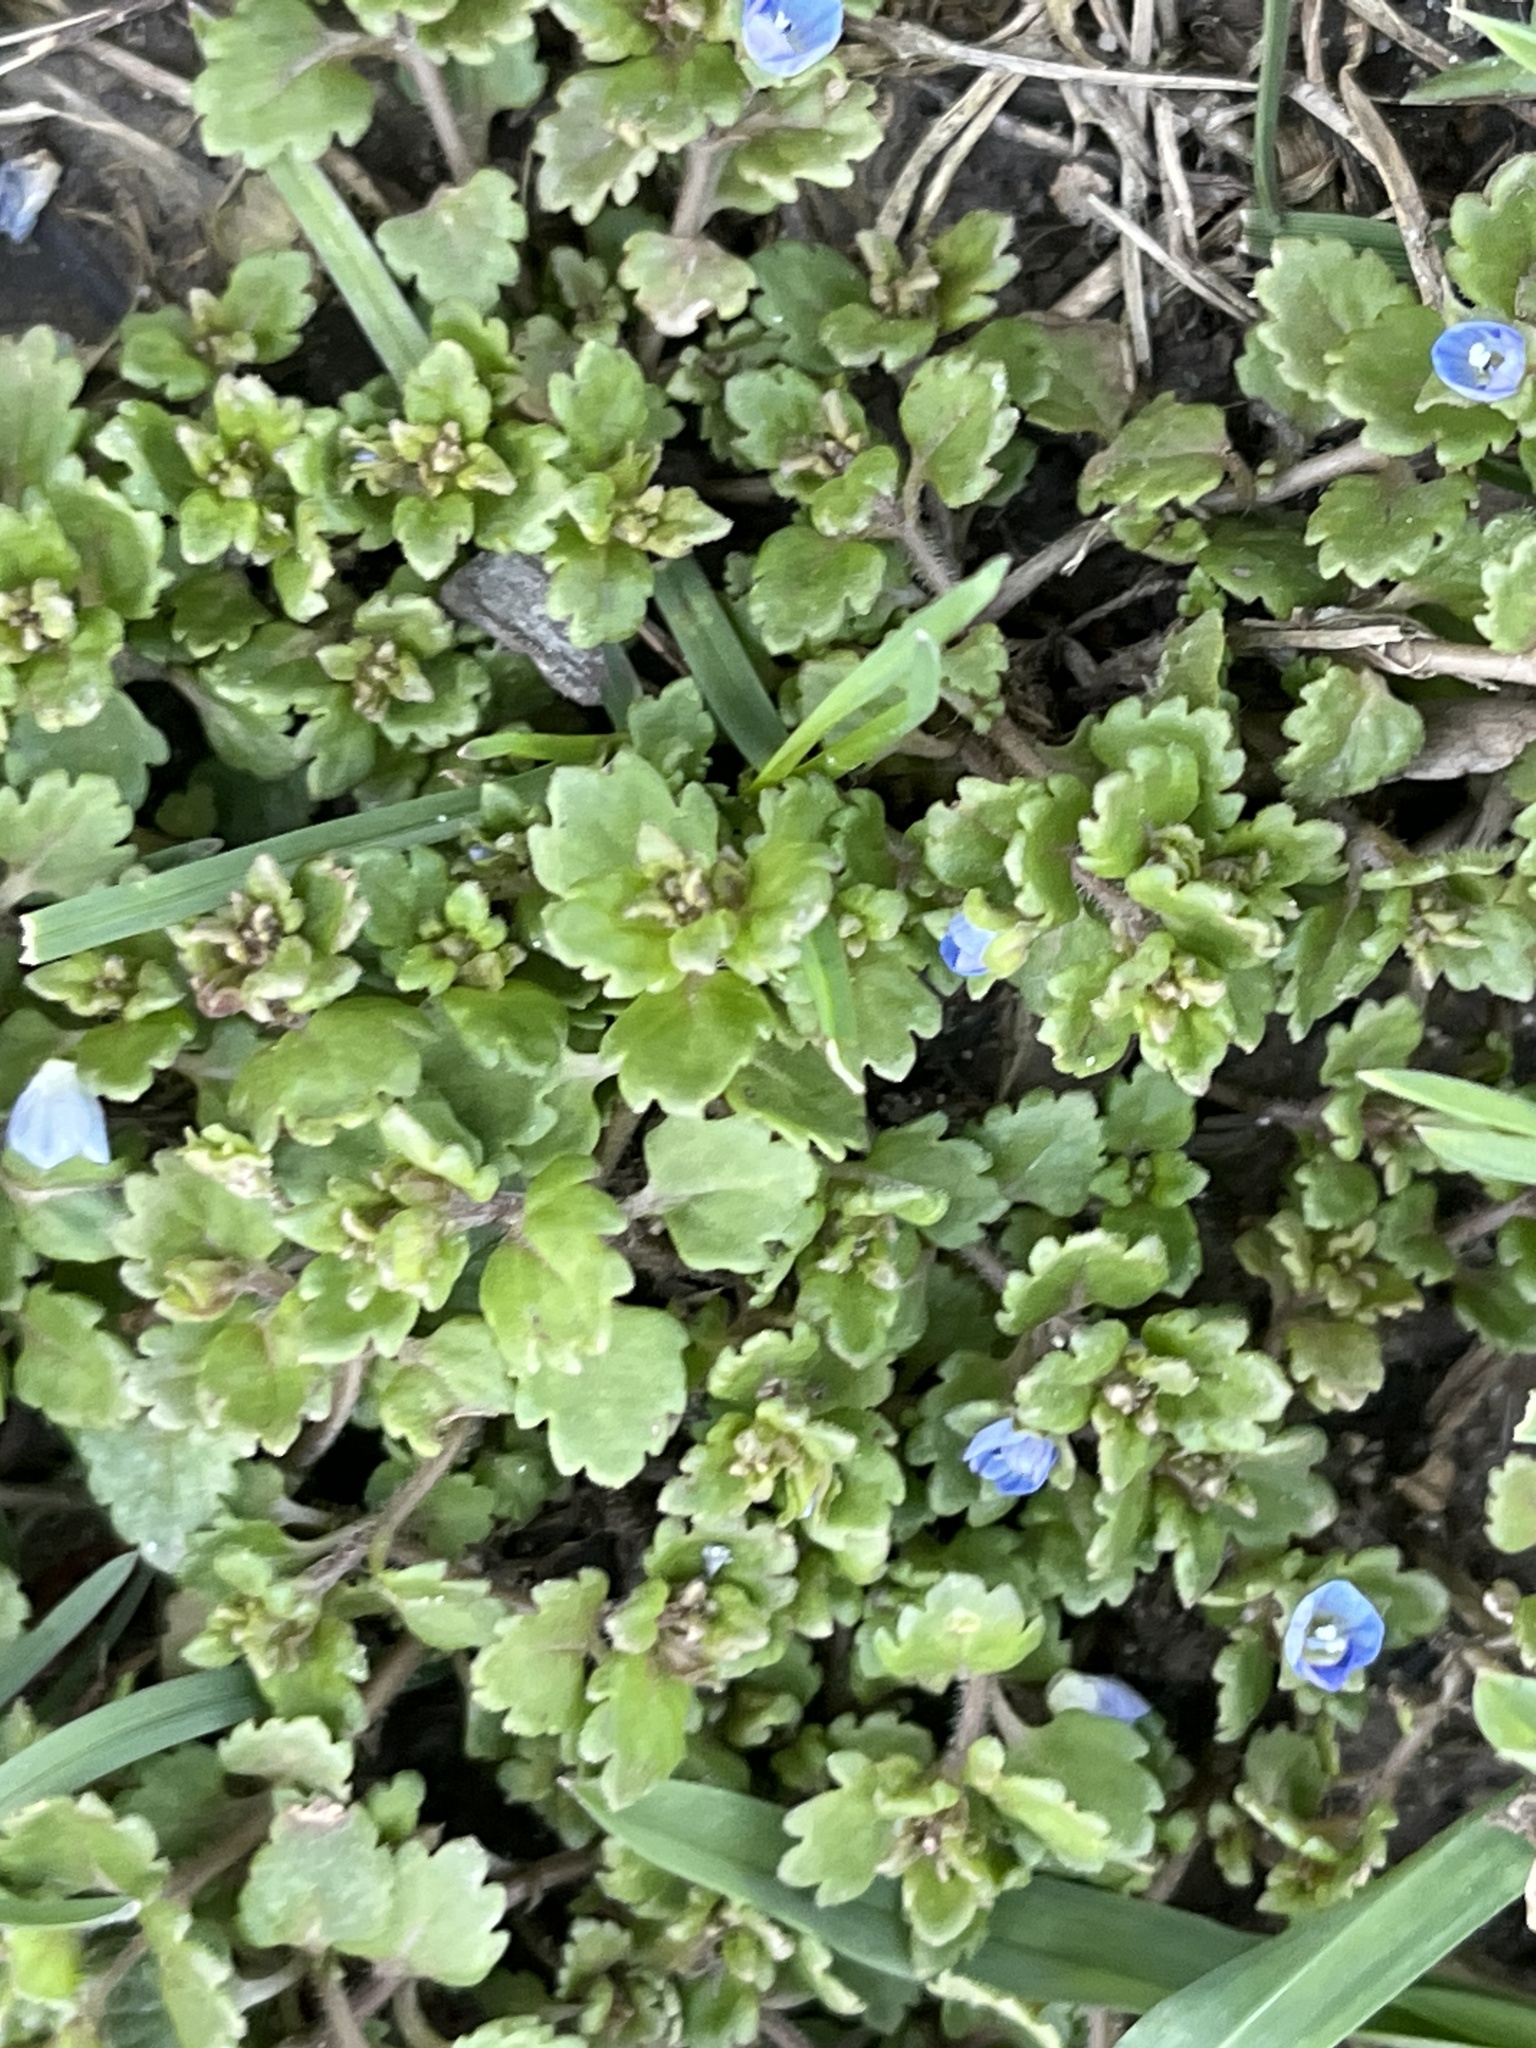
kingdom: Plantae
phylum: Tracheophyta
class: Magnoliopsida
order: Lamiales
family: Plantaginaceae
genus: Veronica
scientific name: Veronica polita
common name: Grey field-speedwell
